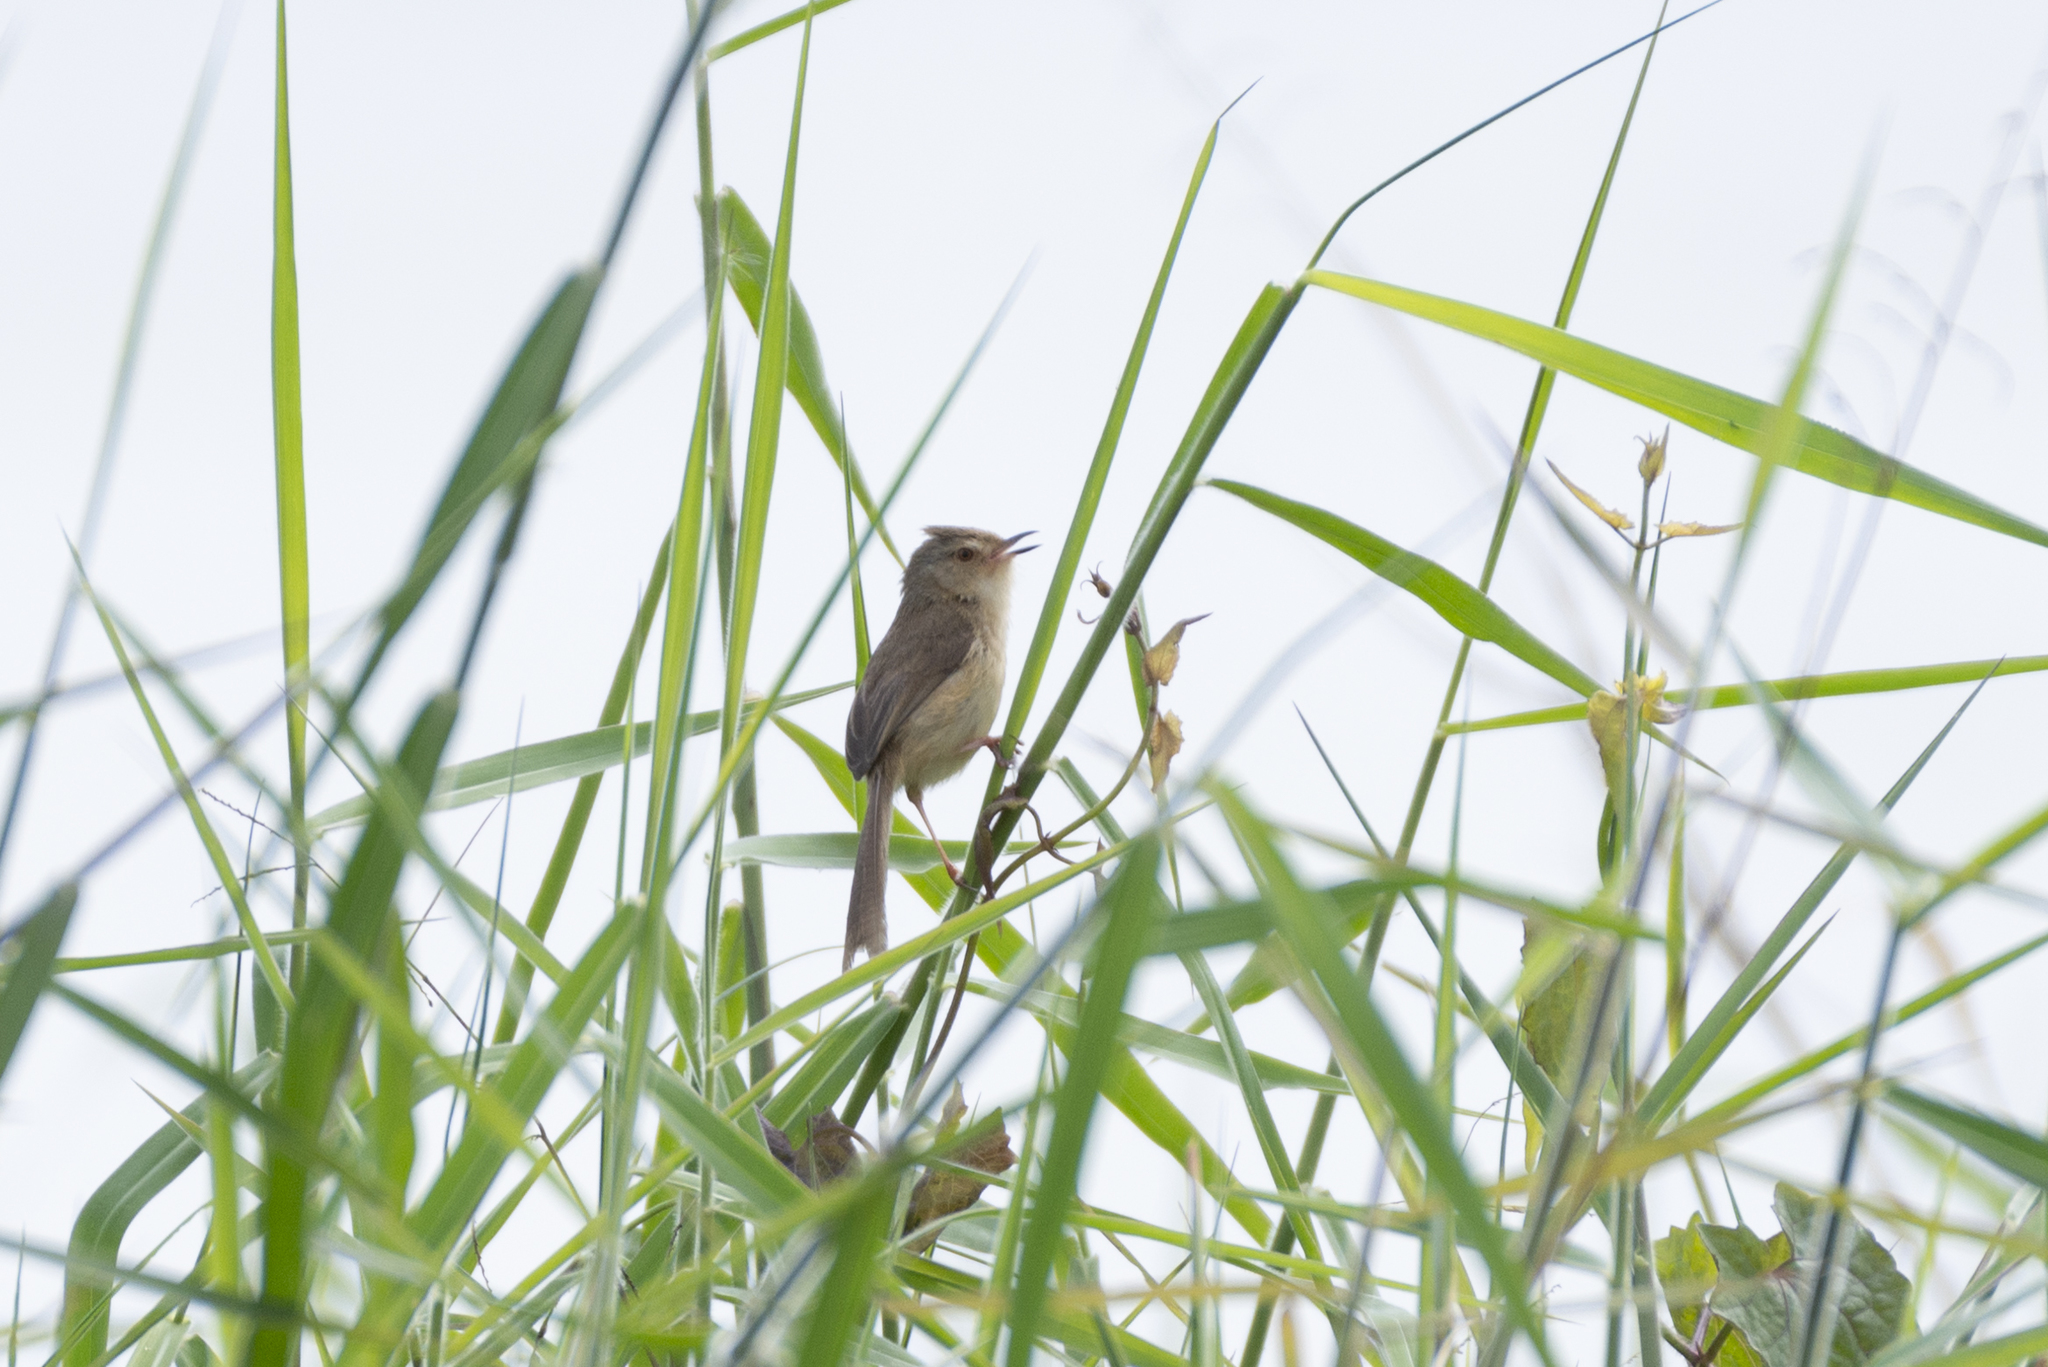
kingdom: Animalia
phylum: Chordata
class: Aves
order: Passeriformes
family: Cisticolidae
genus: Prinia
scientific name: Prinia inornata
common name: Plain prinia
